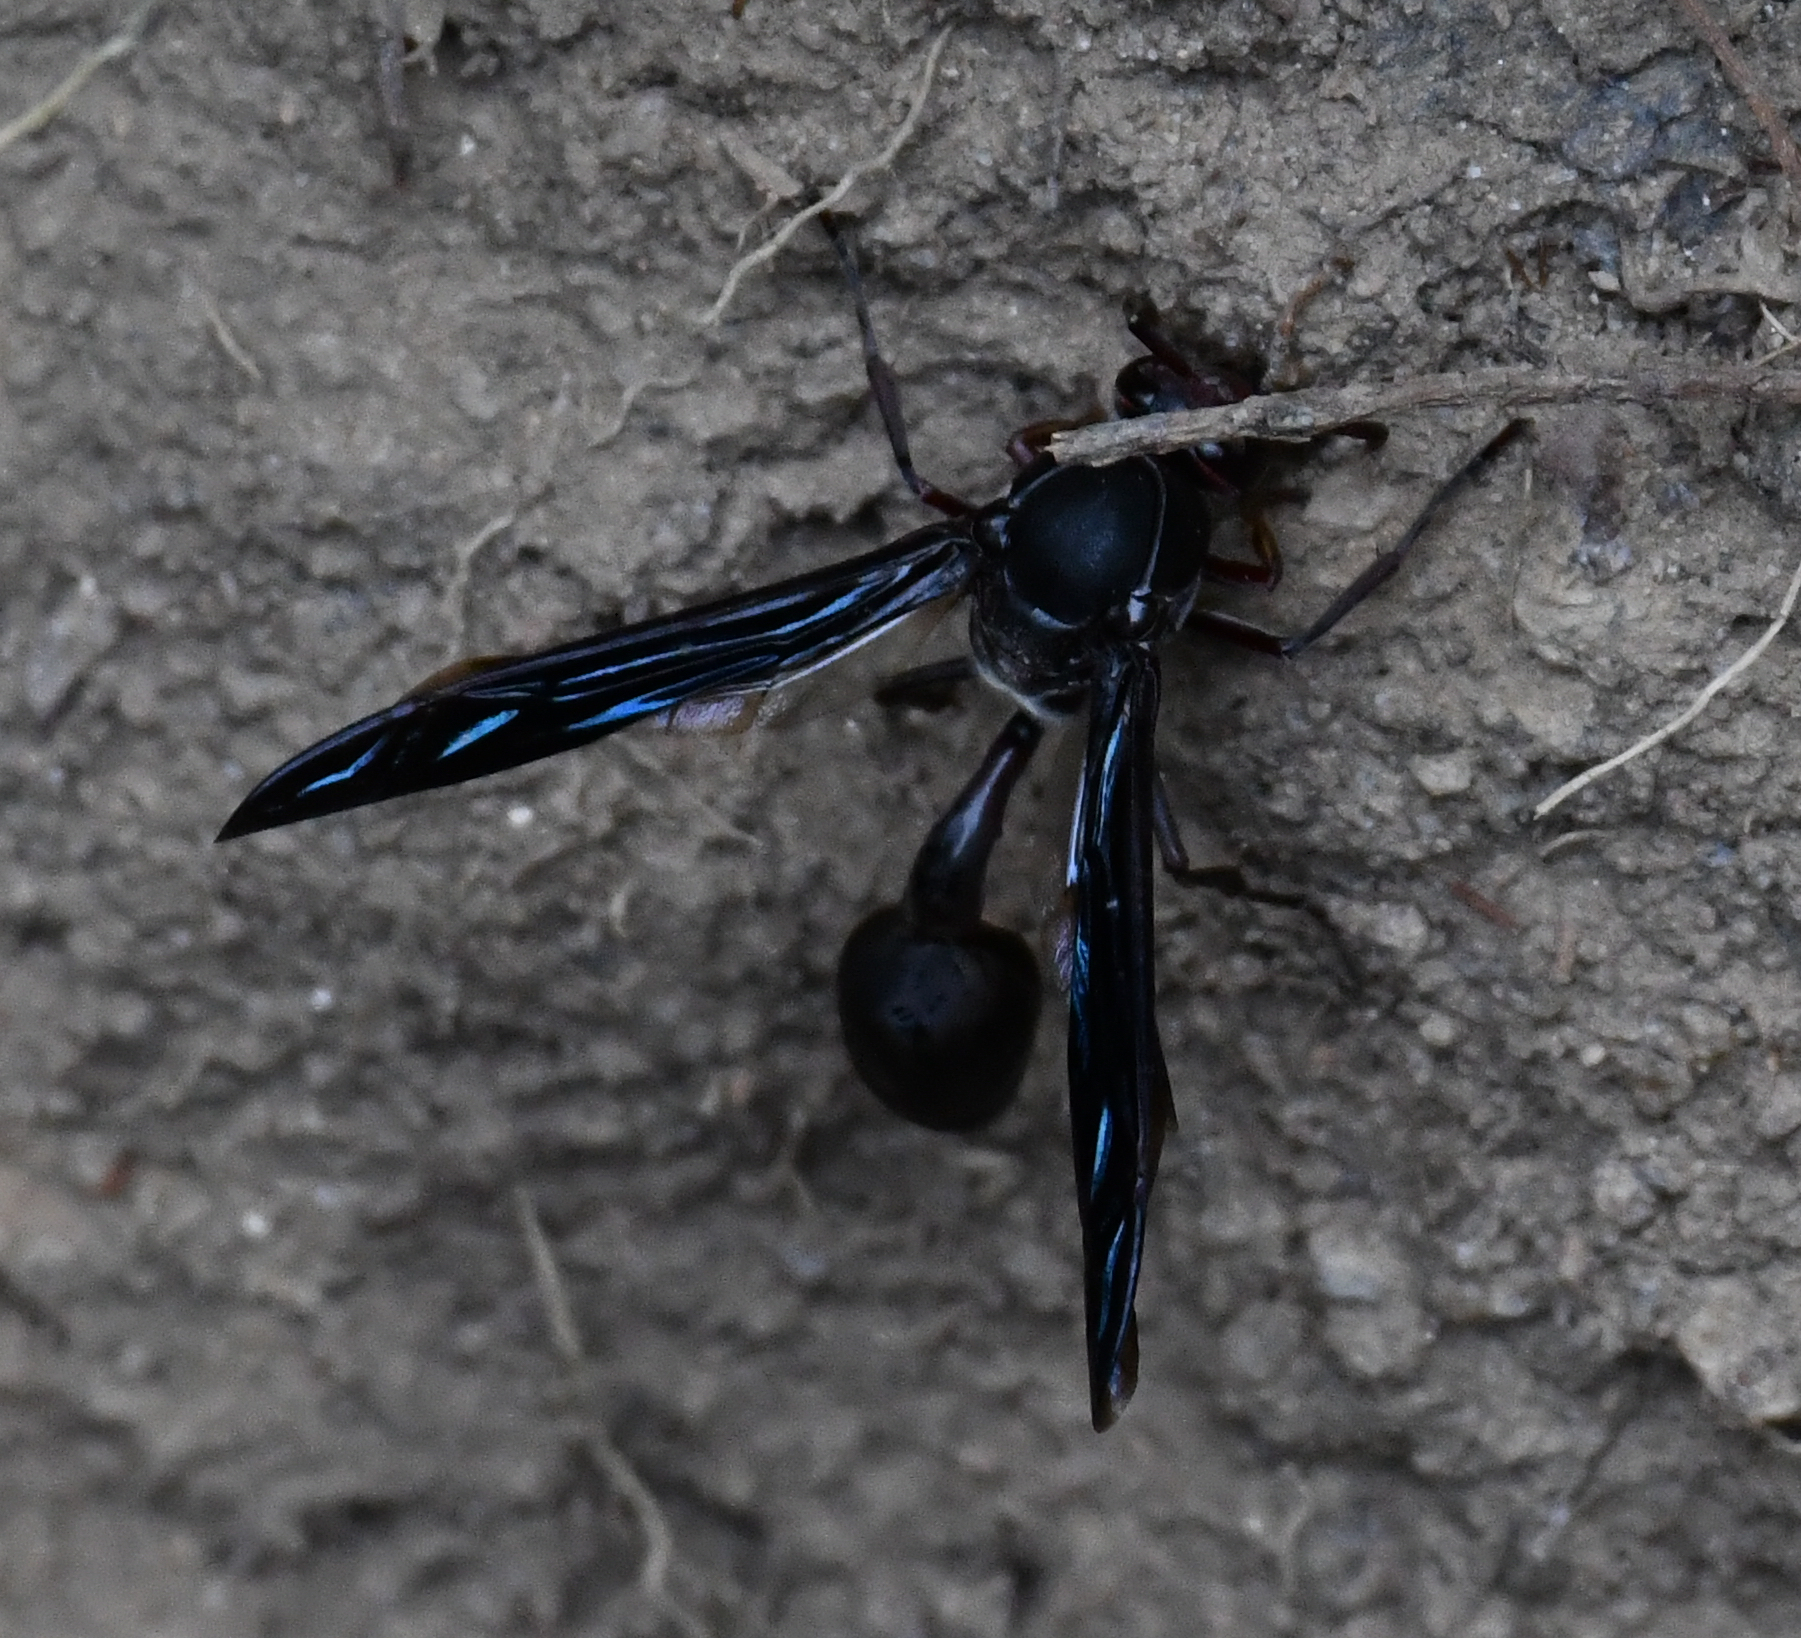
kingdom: Animalia
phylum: Arthropoda
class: Insecta
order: Hymenoptera
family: Eumenidae
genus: Delta
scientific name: Delta bonellii
